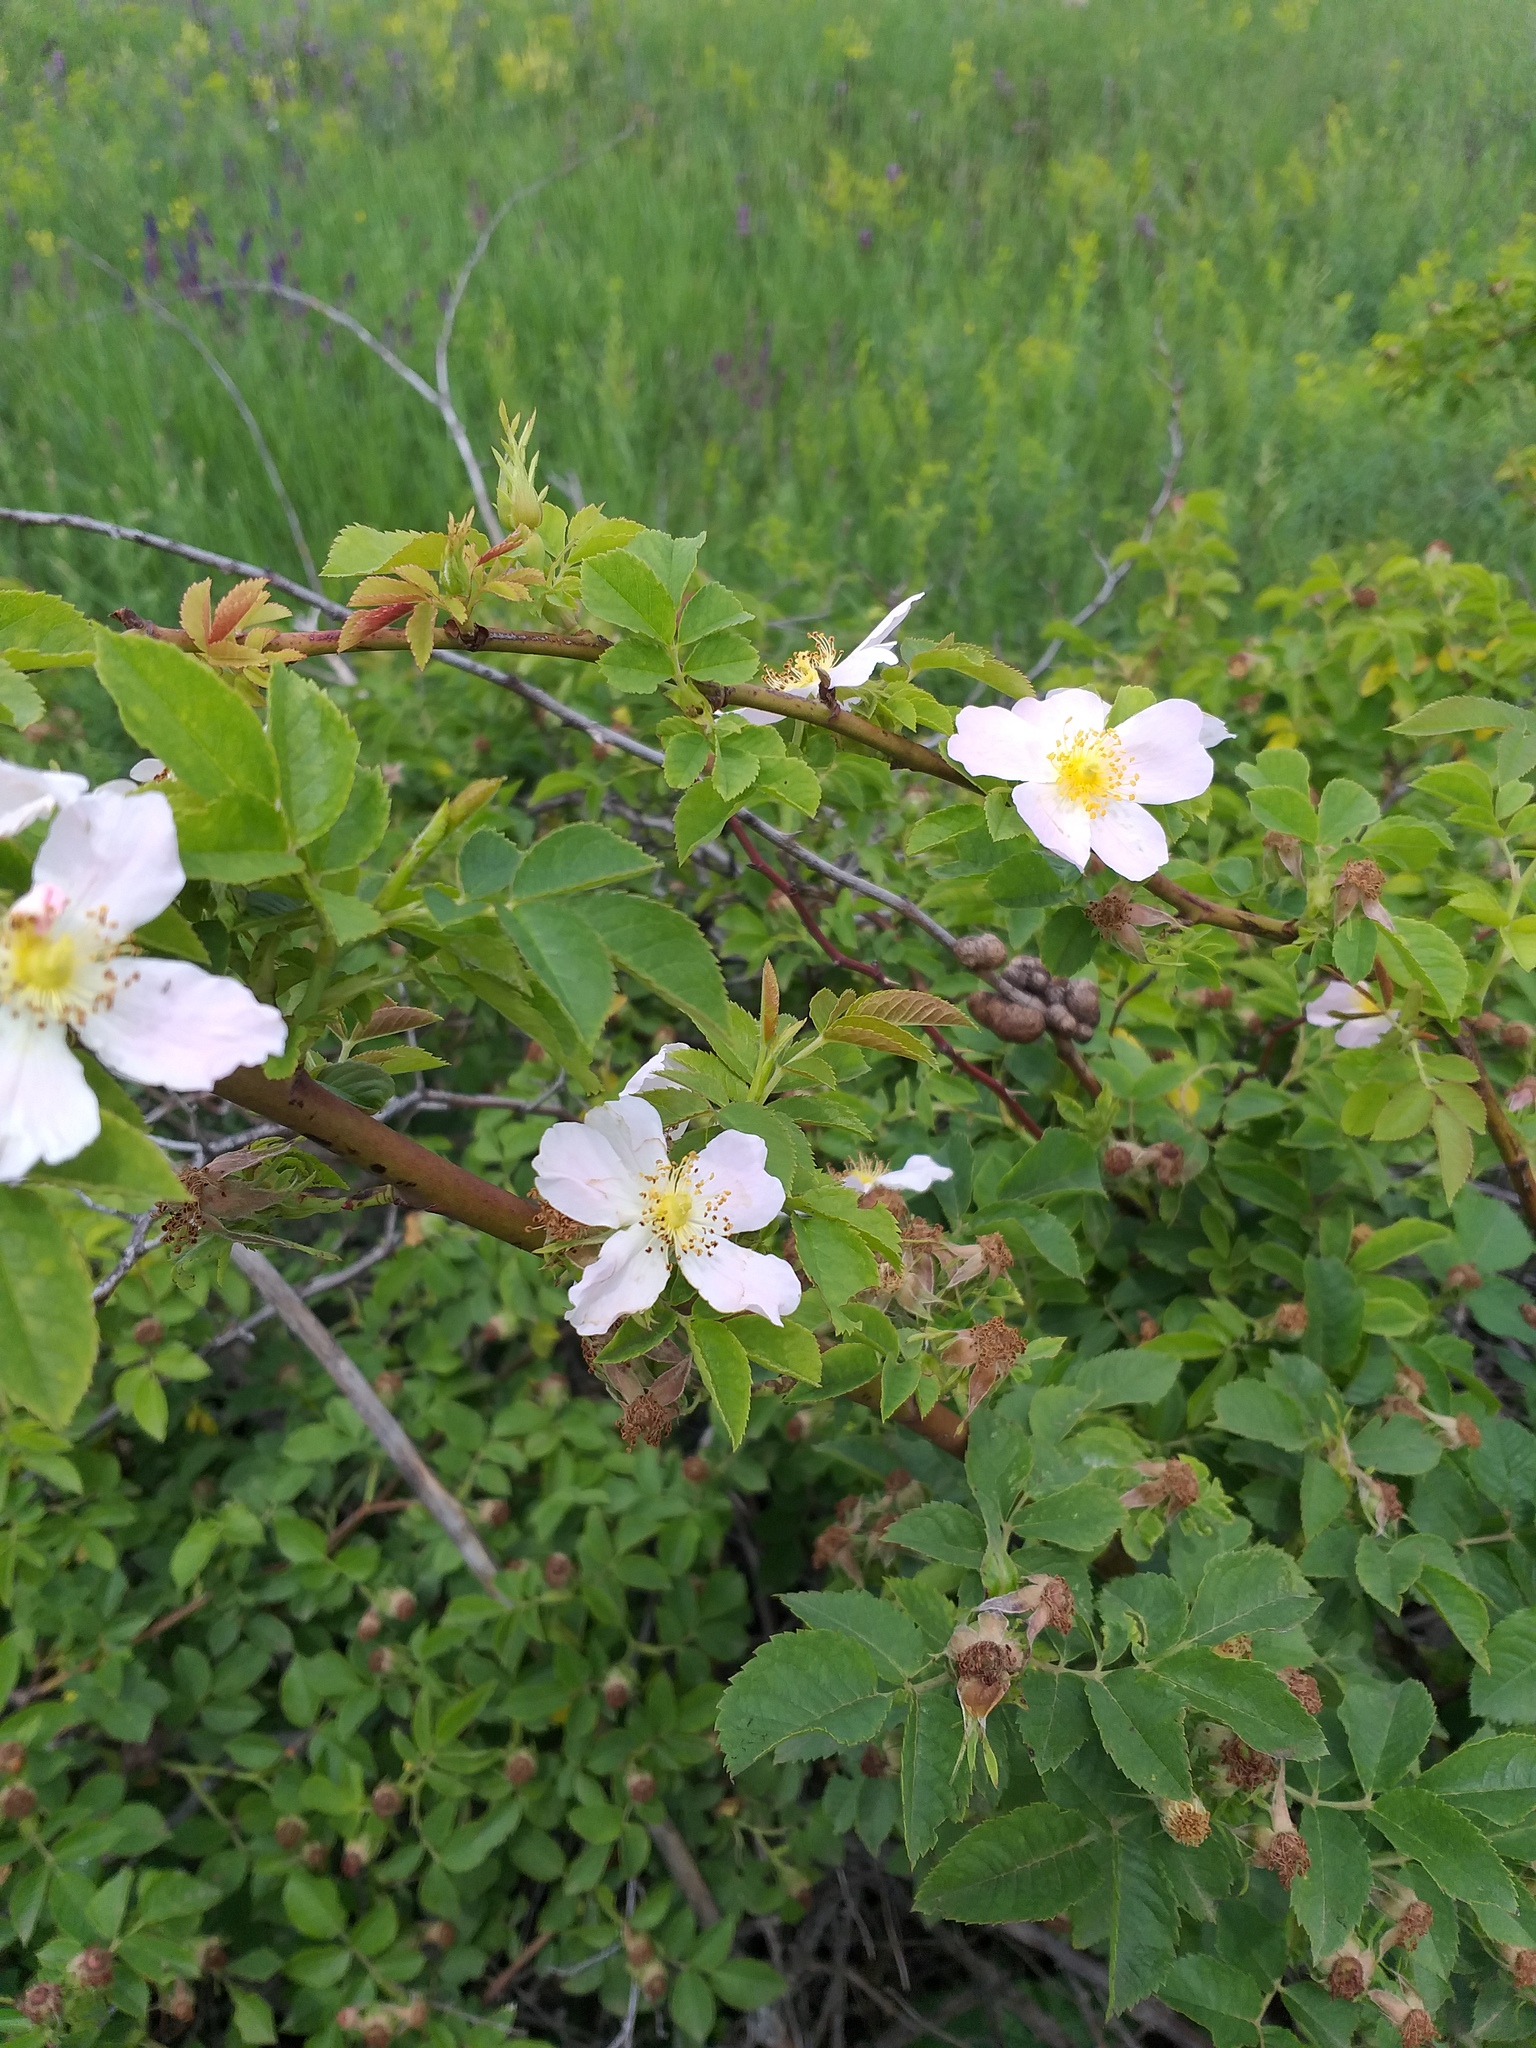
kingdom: Plantae
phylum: Tracheophyta
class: Magnoliopsida
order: Rosales
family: Rosaceae
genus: Rosa
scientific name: Rosa canina
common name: Dog rose
